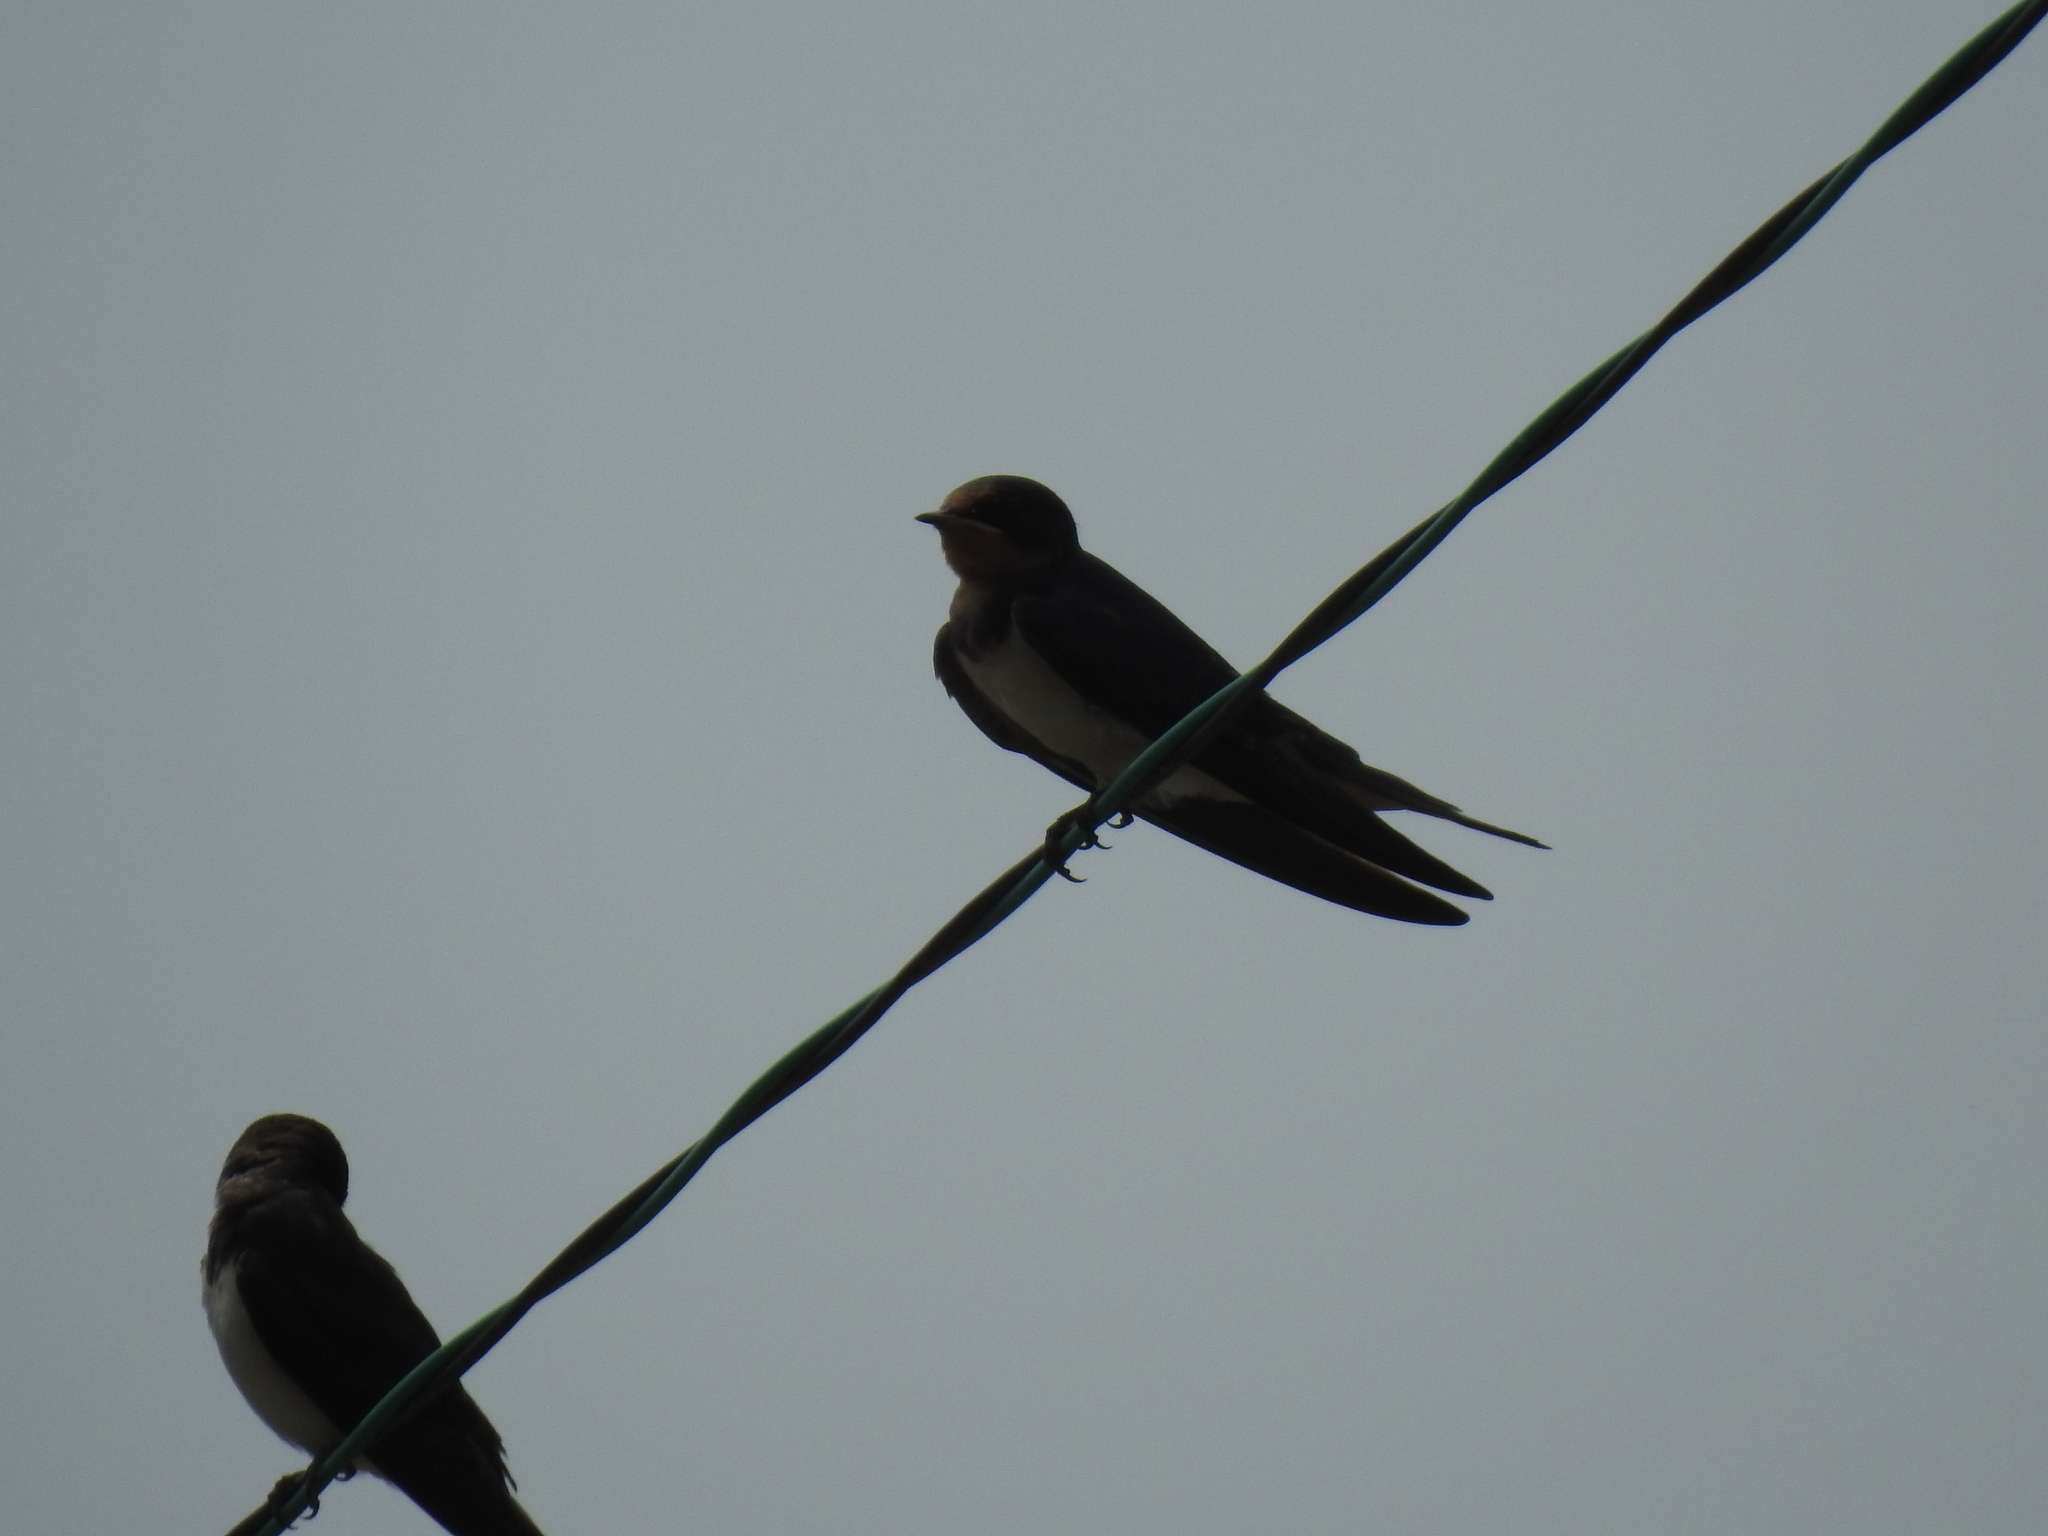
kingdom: Animalia
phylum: Chordata
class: Aves
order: Passeriformes
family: Hirundinidae
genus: Hirundo
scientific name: Hirundo rustica
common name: Barn swallow
